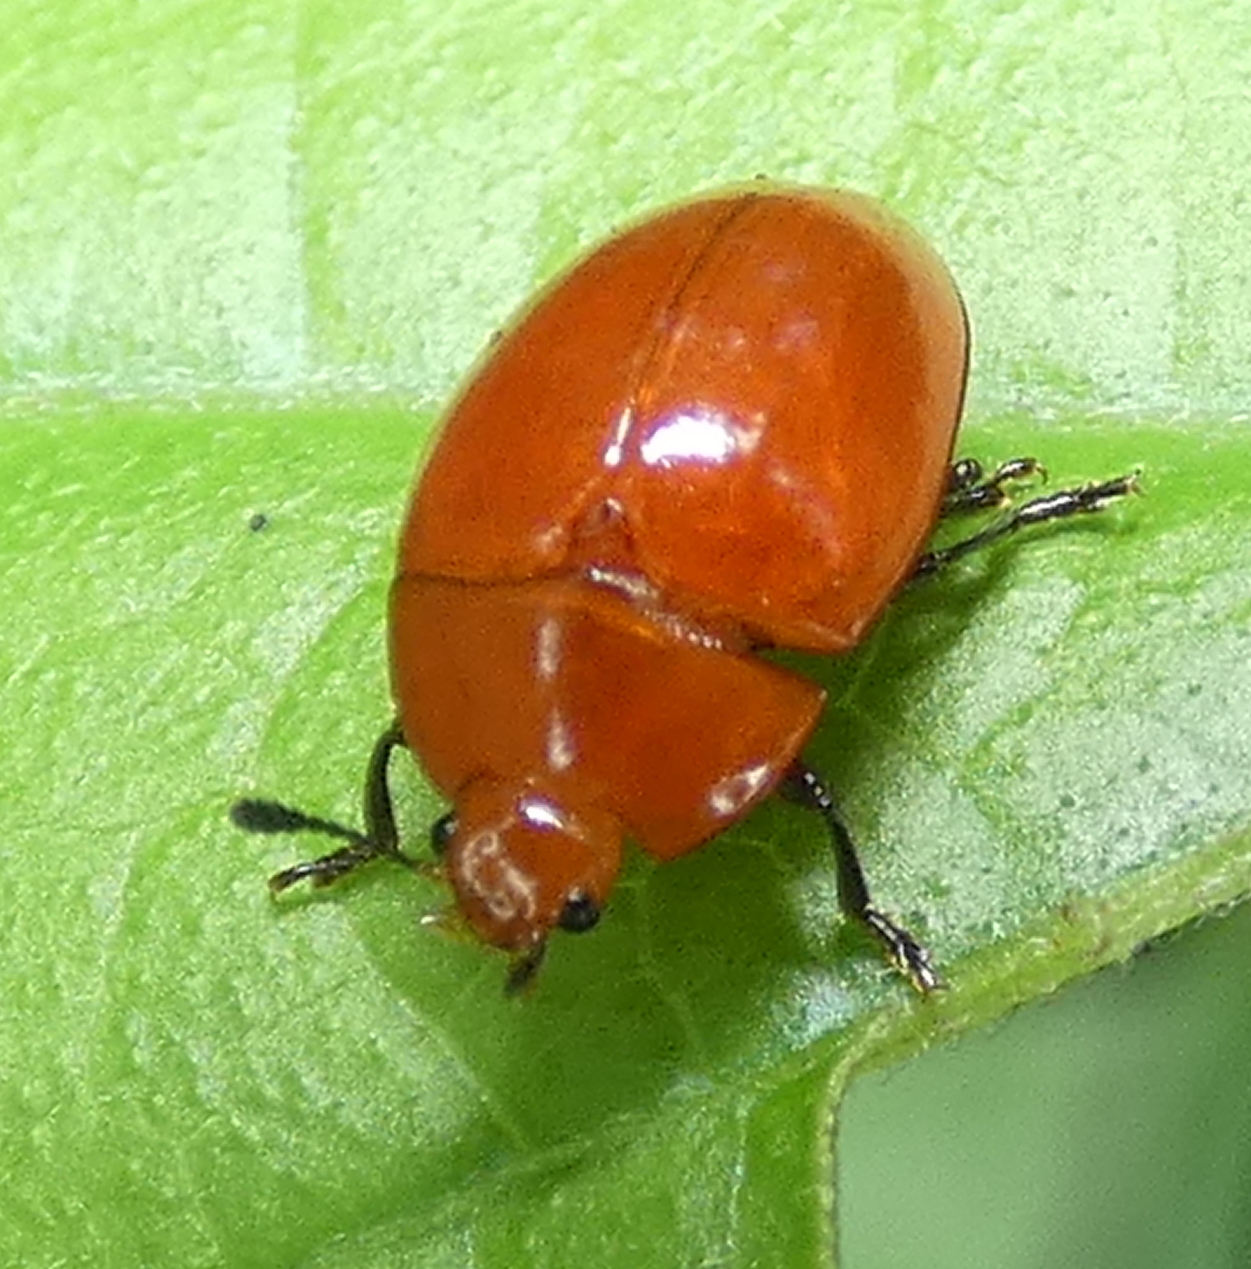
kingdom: Animalia
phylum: Arthropoda
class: Insecta
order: Coleoptera
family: Erotylidae
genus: Iphiclus
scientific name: Iphiclus
